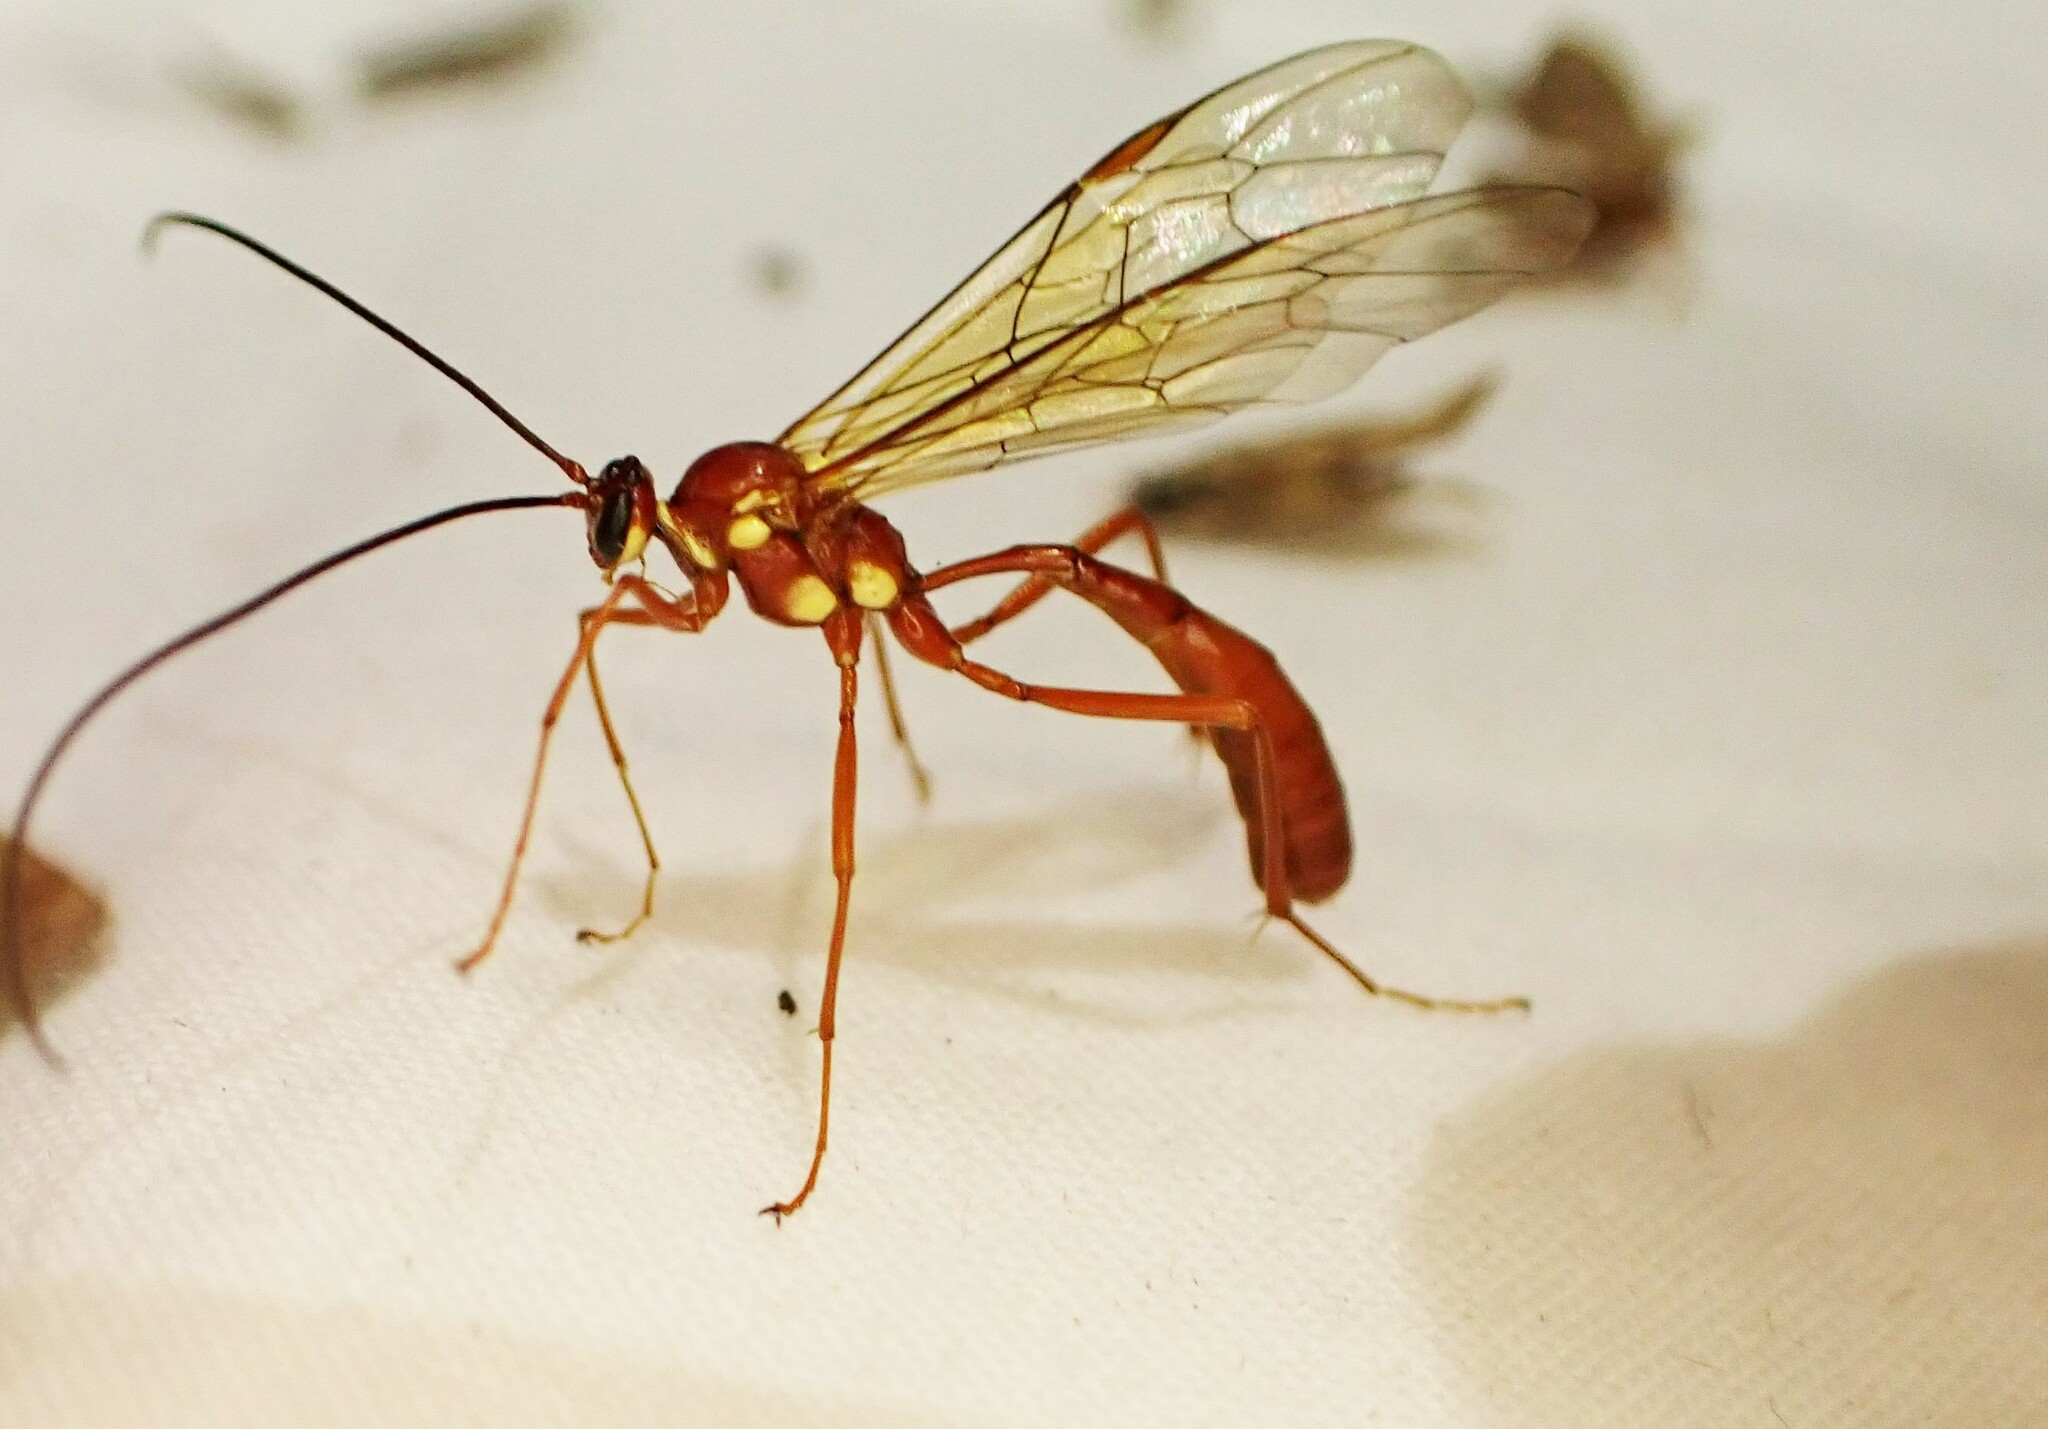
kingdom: Animalia
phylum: Arthropoda
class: Insecta
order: Hymenoptera
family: Ichneumonidae
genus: Ophion
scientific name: Ophion peregrinus
